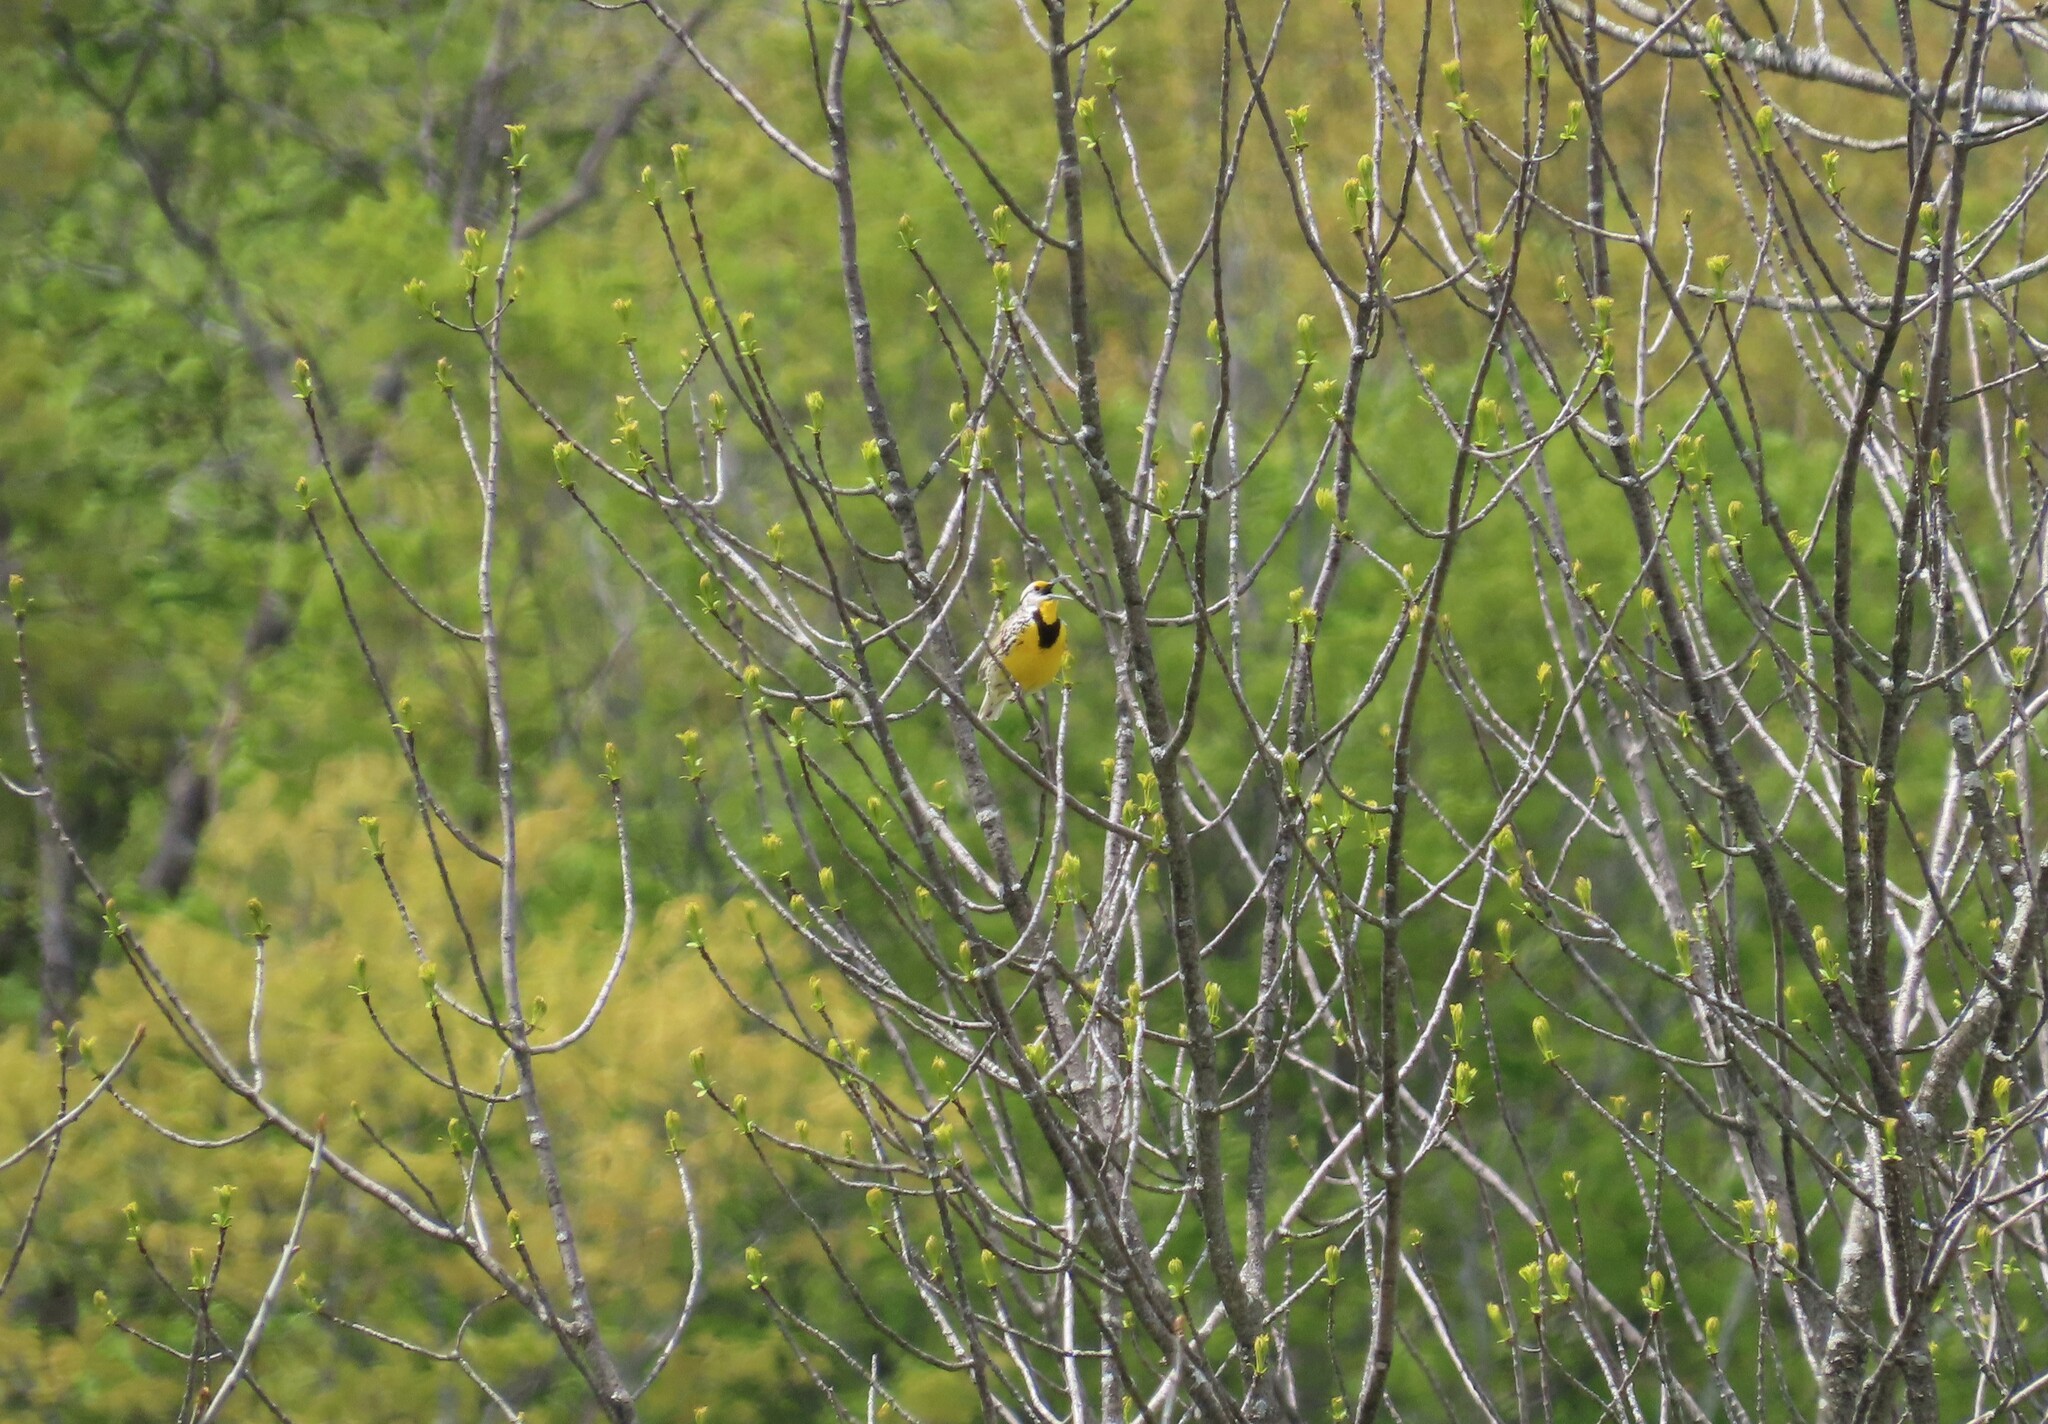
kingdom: Animalia
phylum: Chordata
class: Aves
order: Passeriformes
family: Icteridae
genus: Sturnella
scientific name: Sturnella magna
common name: Eastern meadowlark
